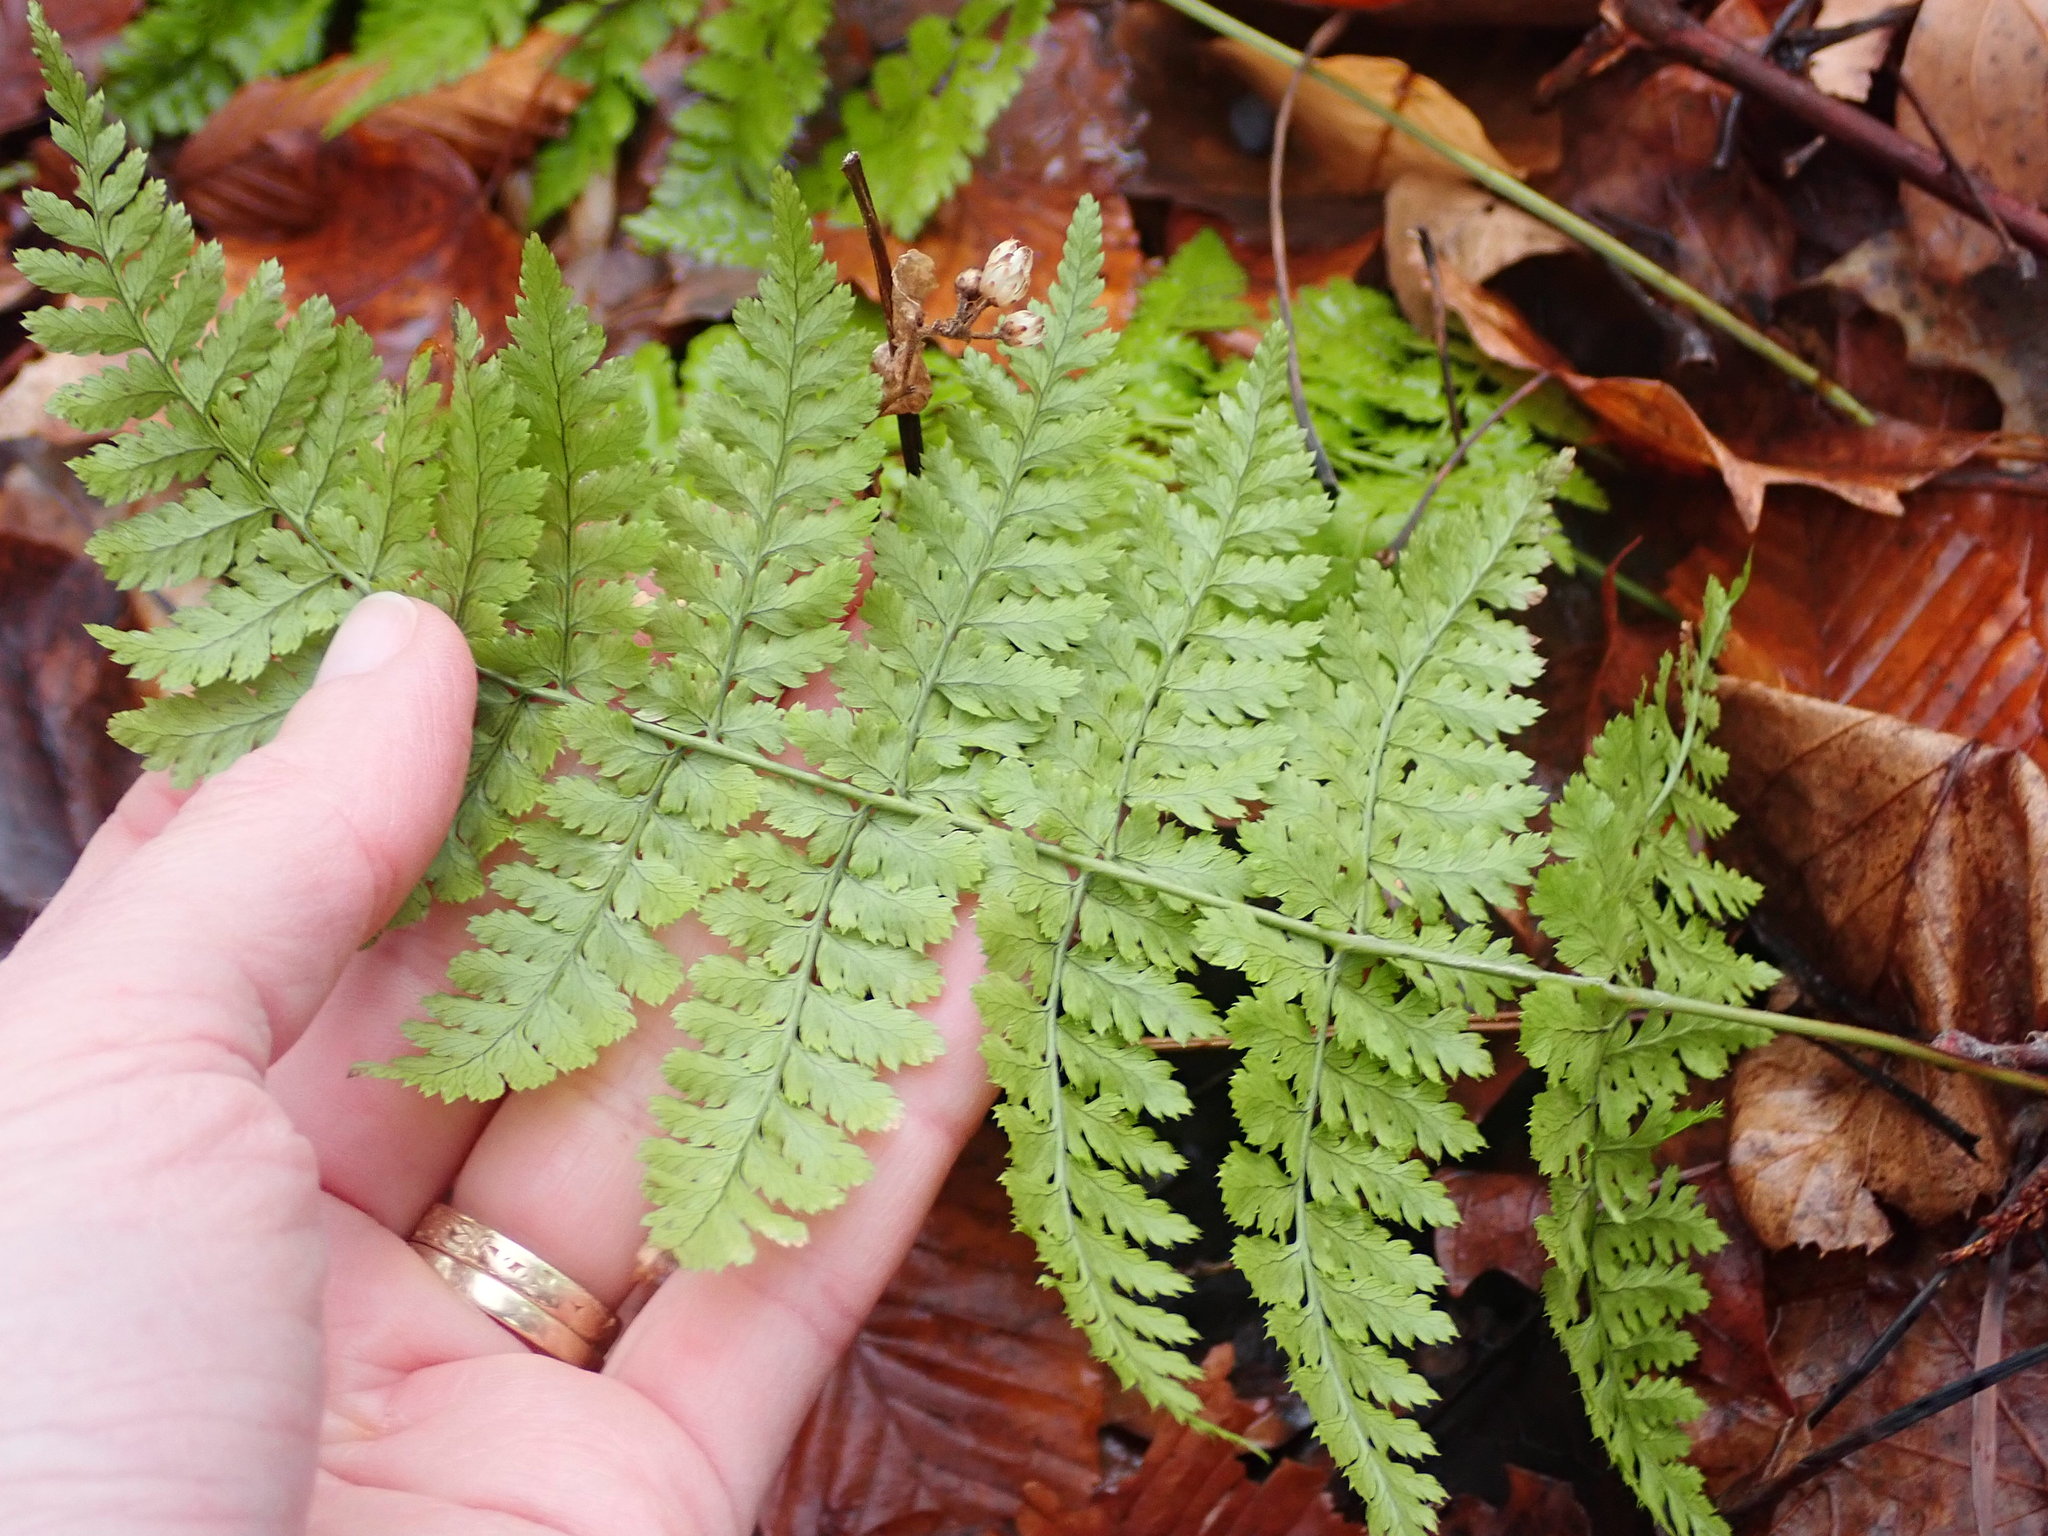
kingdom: Plantae
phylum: Tracheophyta
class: Polypodiopsida
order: Polypodiales
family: Dryopteridaceae
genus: Dryopteris
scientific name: Dryopteris intermedia
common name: Evergreen wood fern
